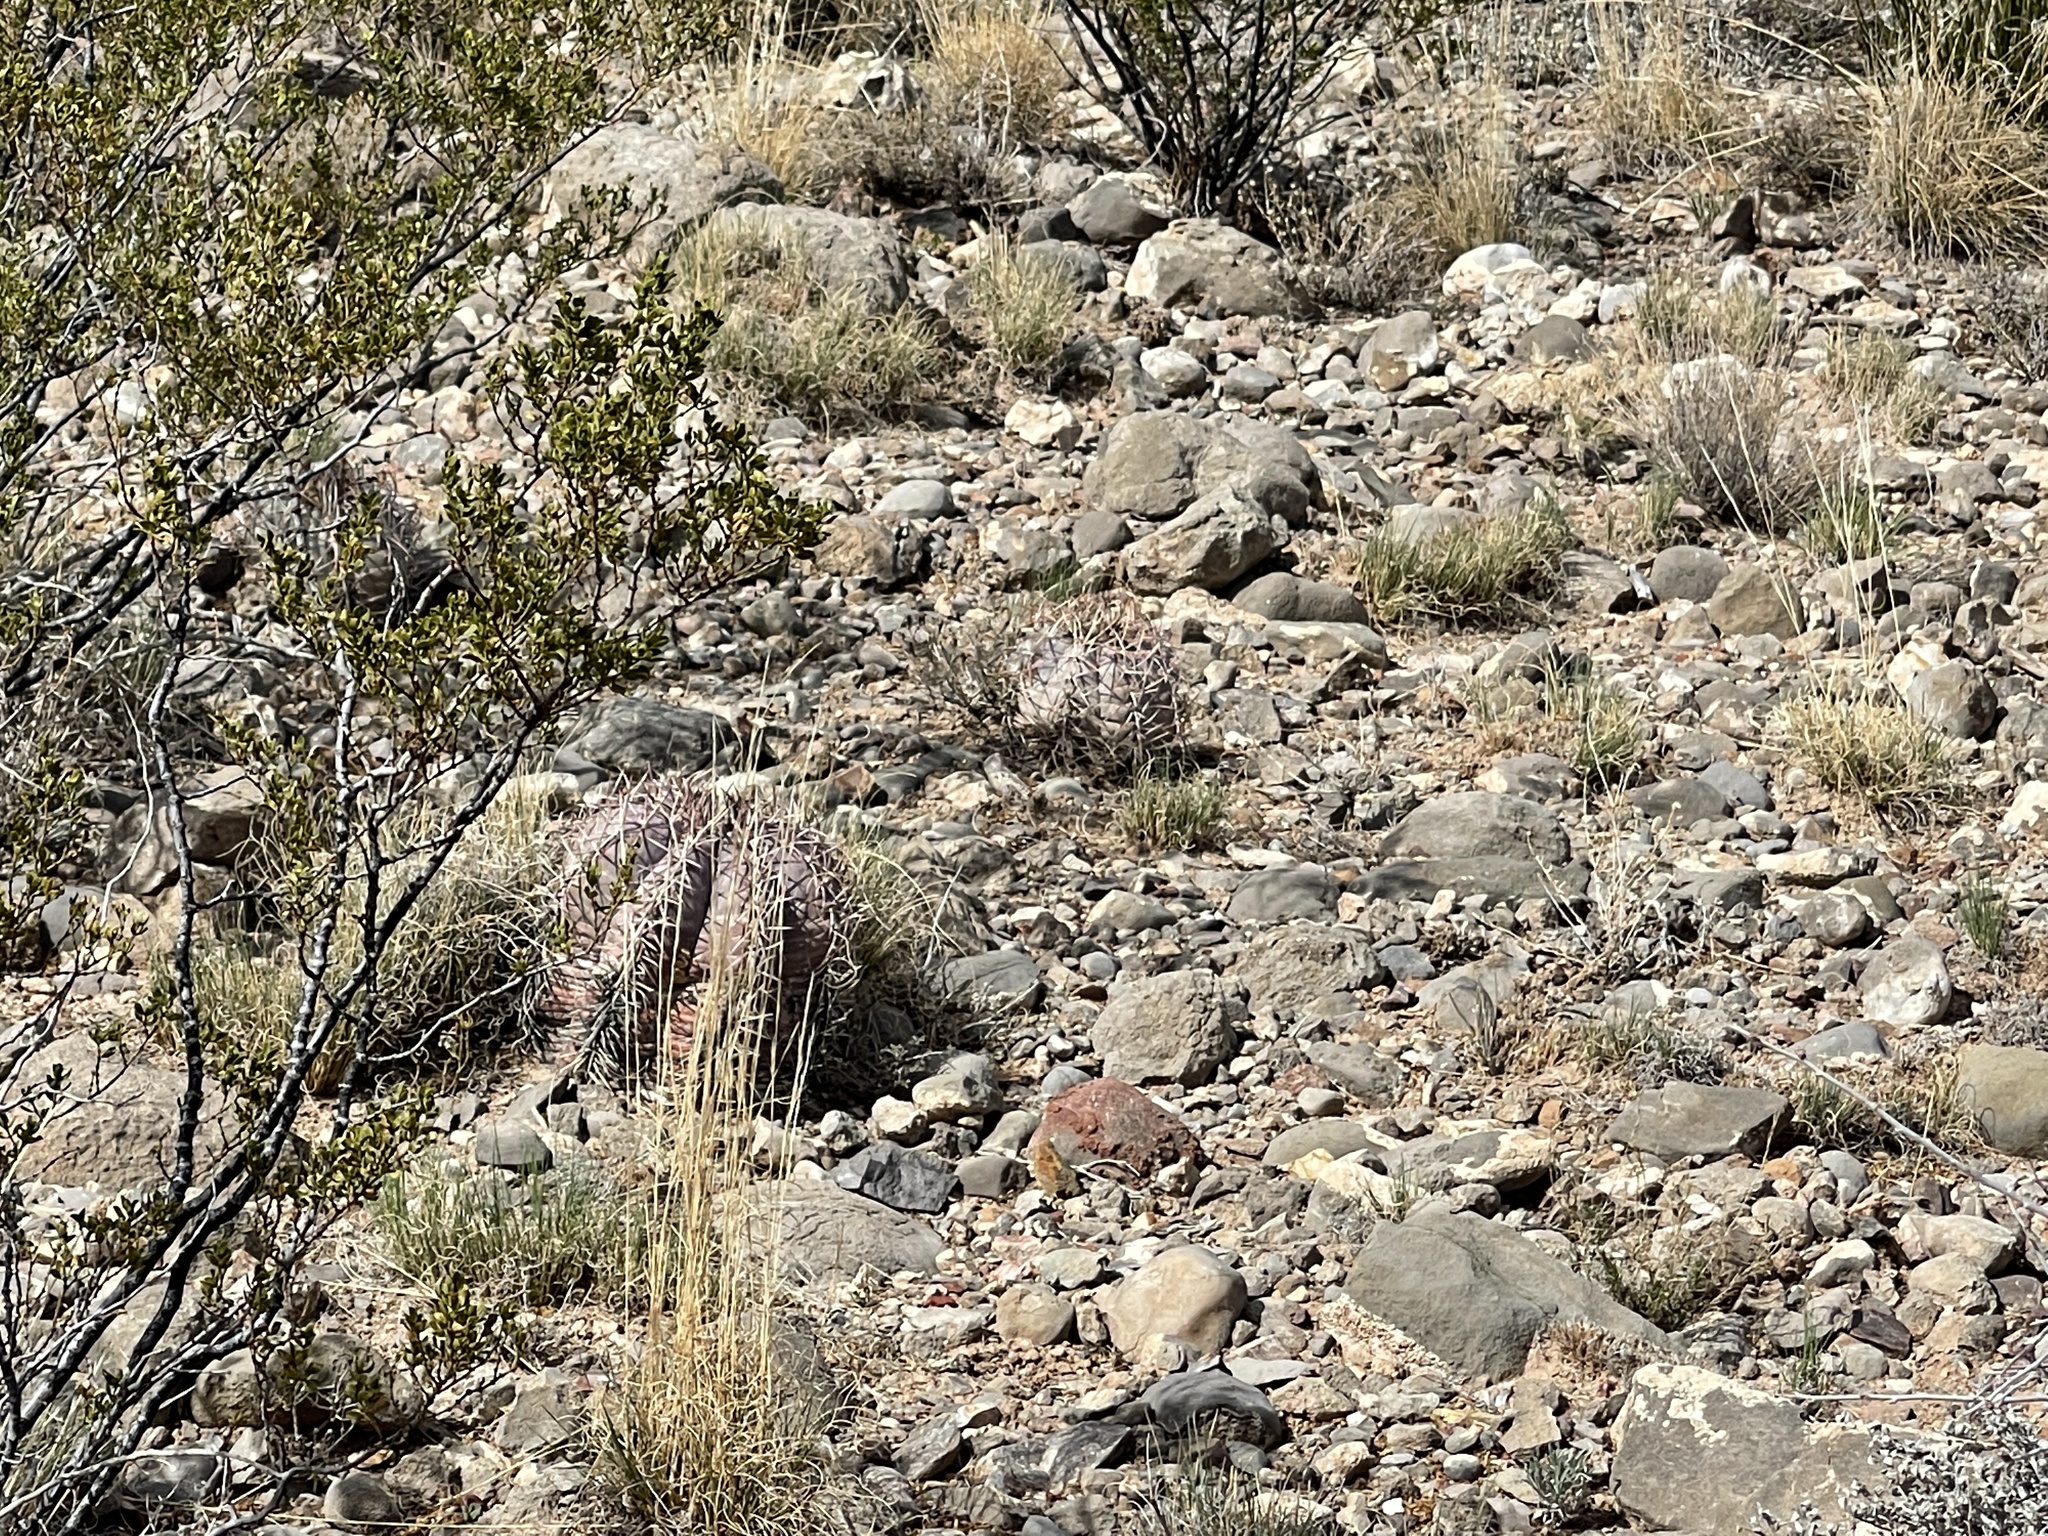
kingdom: Plantae
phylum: Tracheophyta
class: Magnoliopsida
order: Caryophyllales
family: Cactaceae
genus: Echinocactus
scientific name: Echinocactus horizonthalonius
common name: Devilshead
